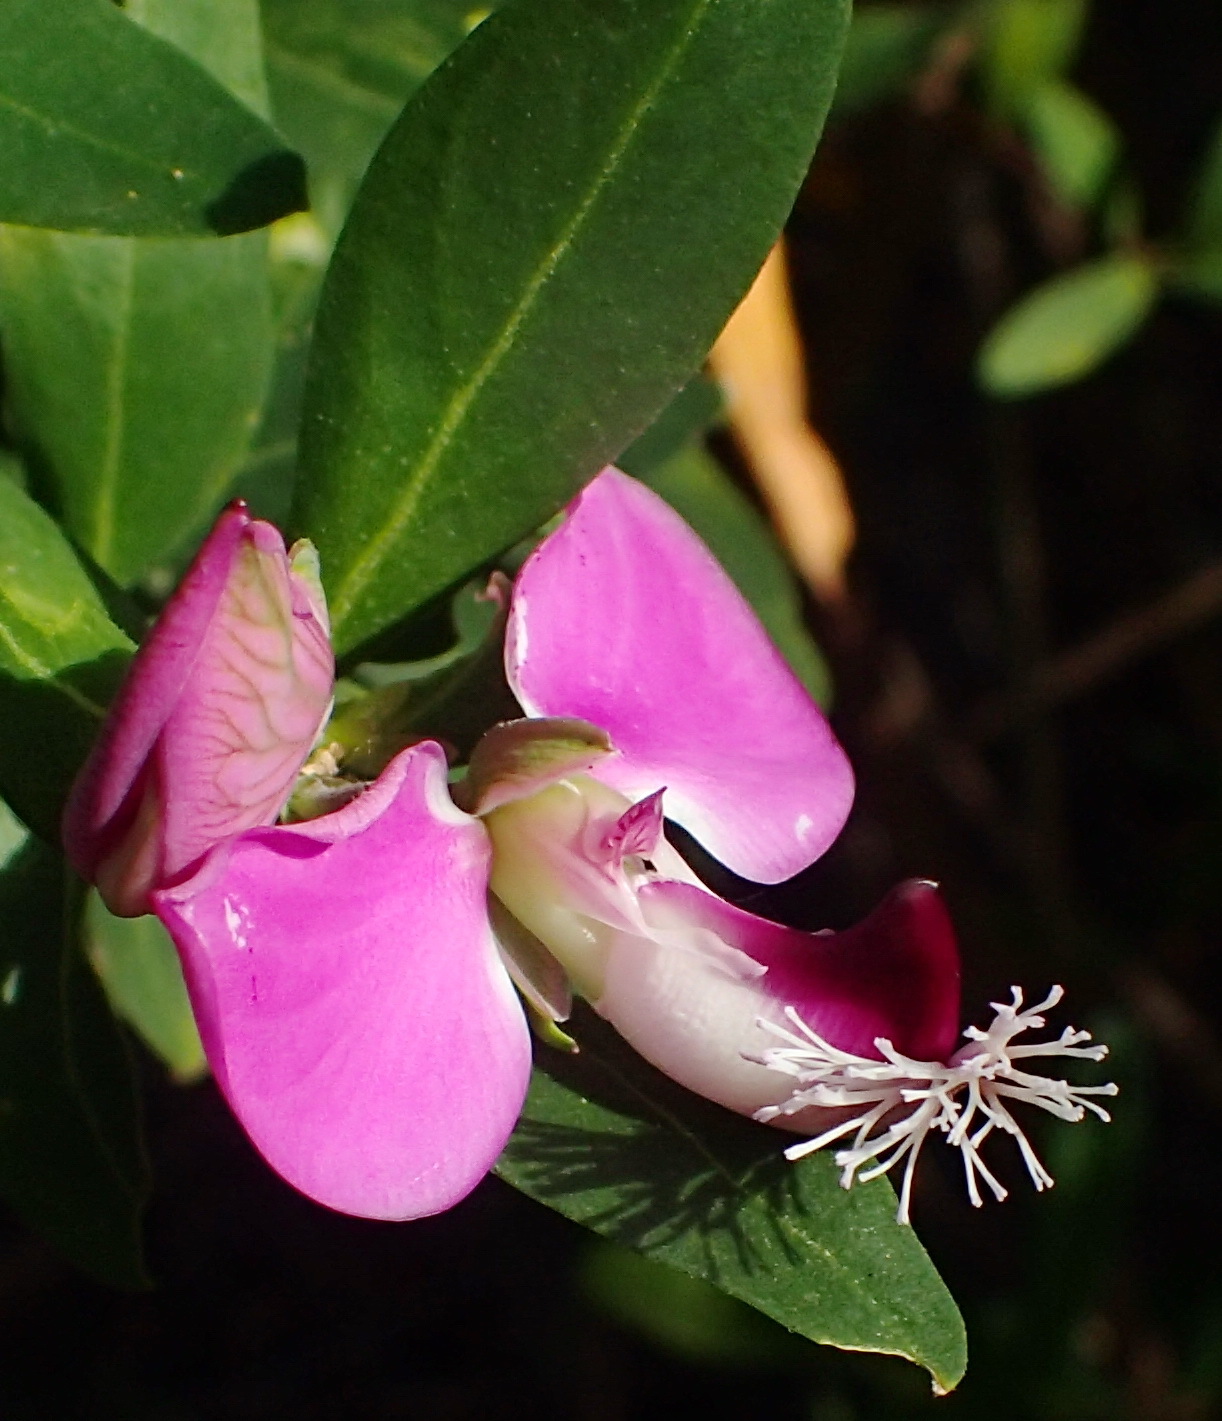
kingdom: Plantae
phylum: Tracheophyta
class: Magnoliopsida
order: Fabales
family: Polygalaceae
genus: Polygala
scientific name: Polygala myrtifolia
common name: Myrtle-leaf milkwort
